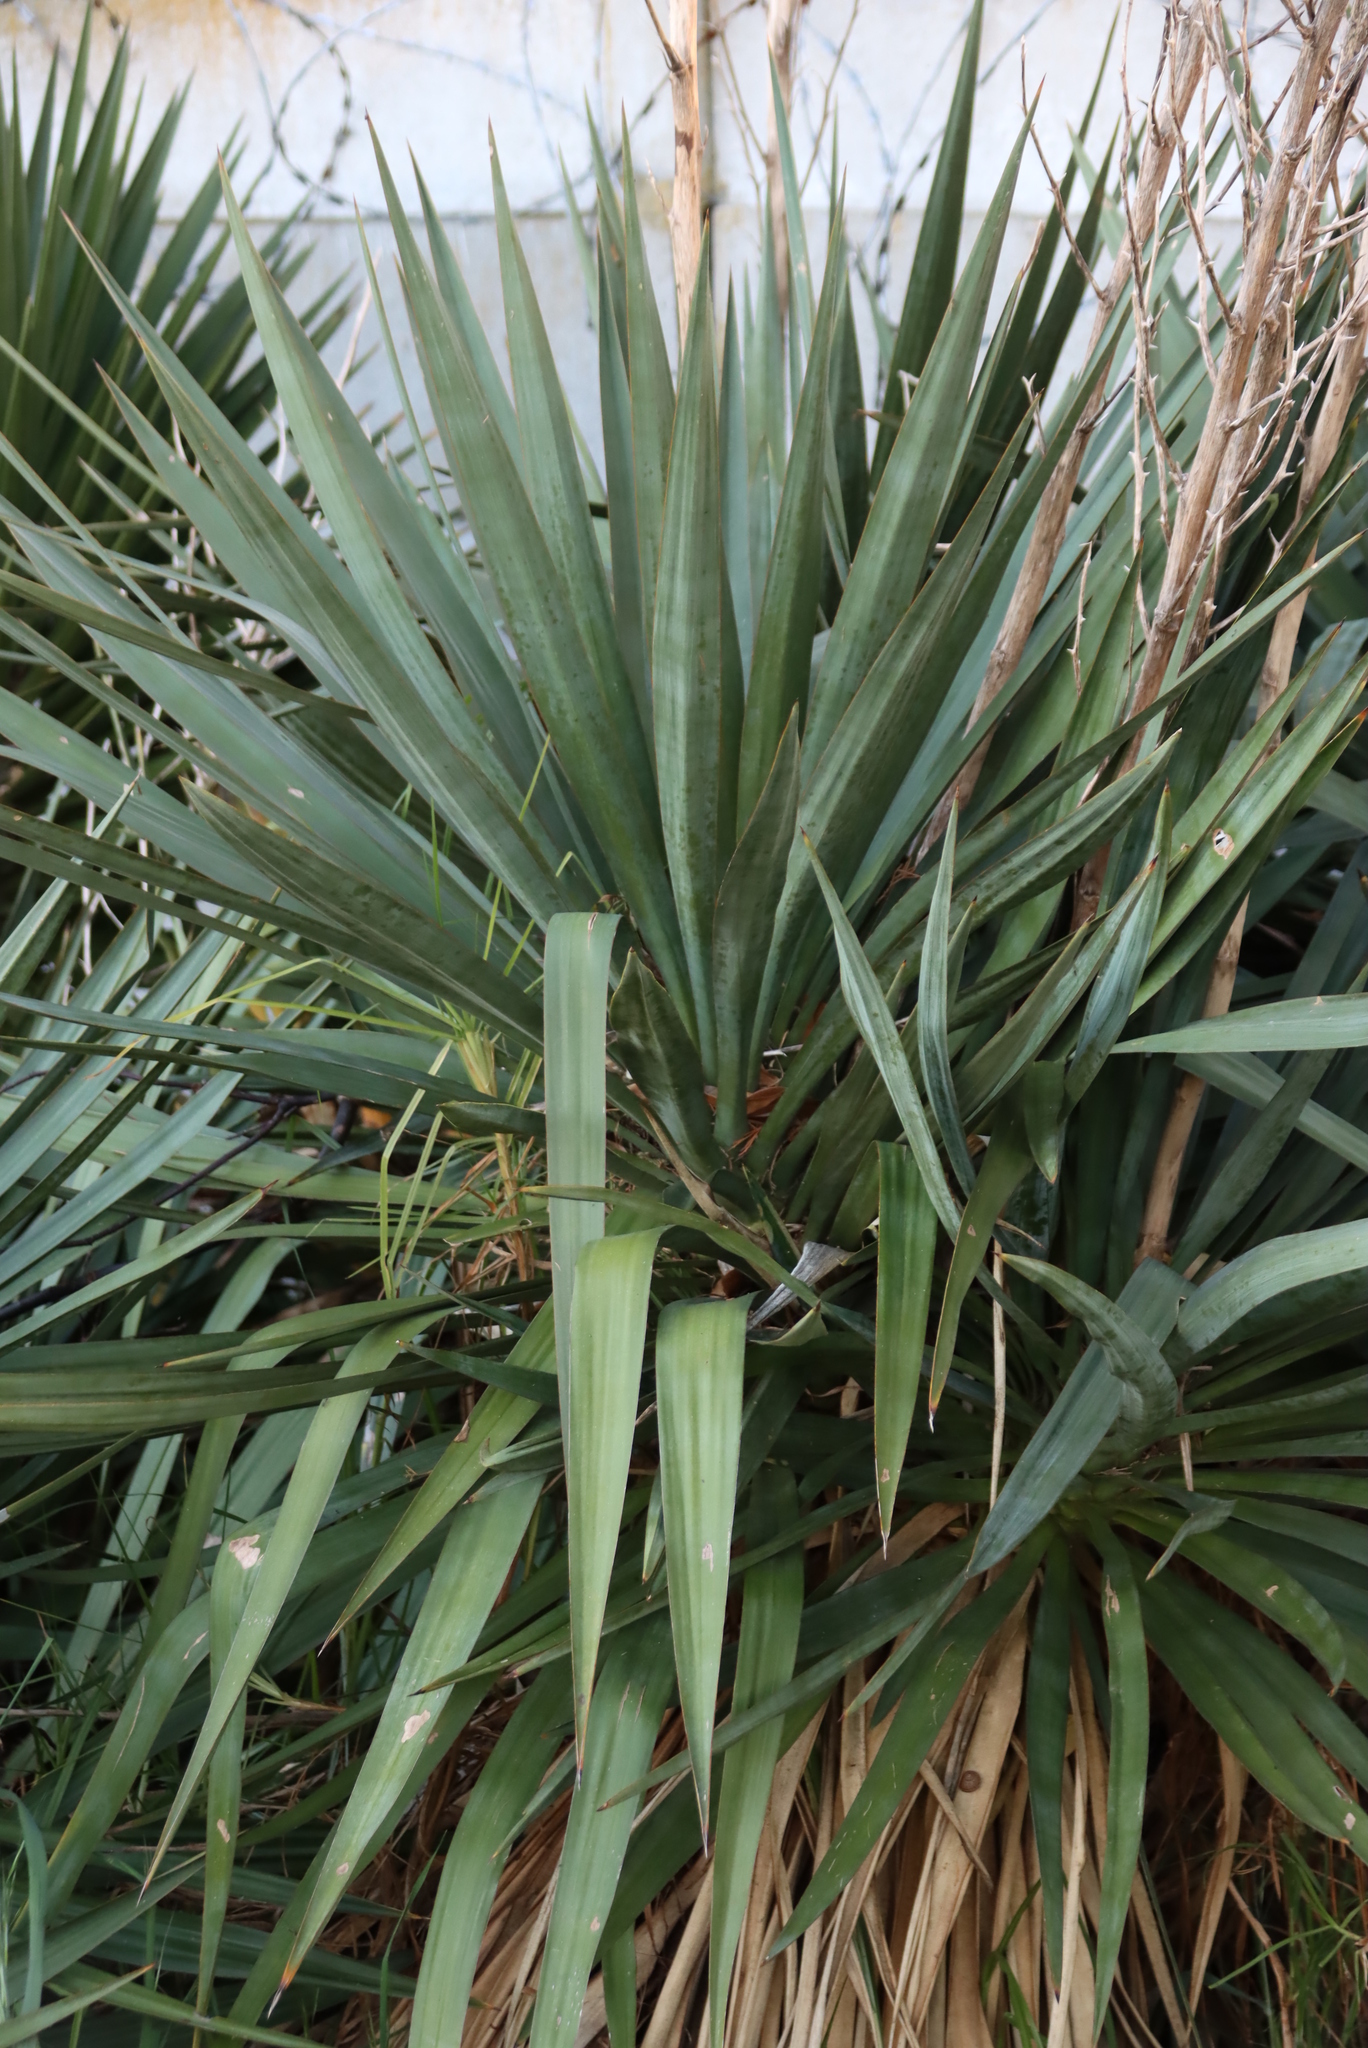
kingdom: Plantae
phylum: Tracheophyta
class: Liliopsida
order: Asparagales
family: Asparagaceae
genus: Yucca
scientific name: Yucca gloriosa
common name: Spanish-dagger
